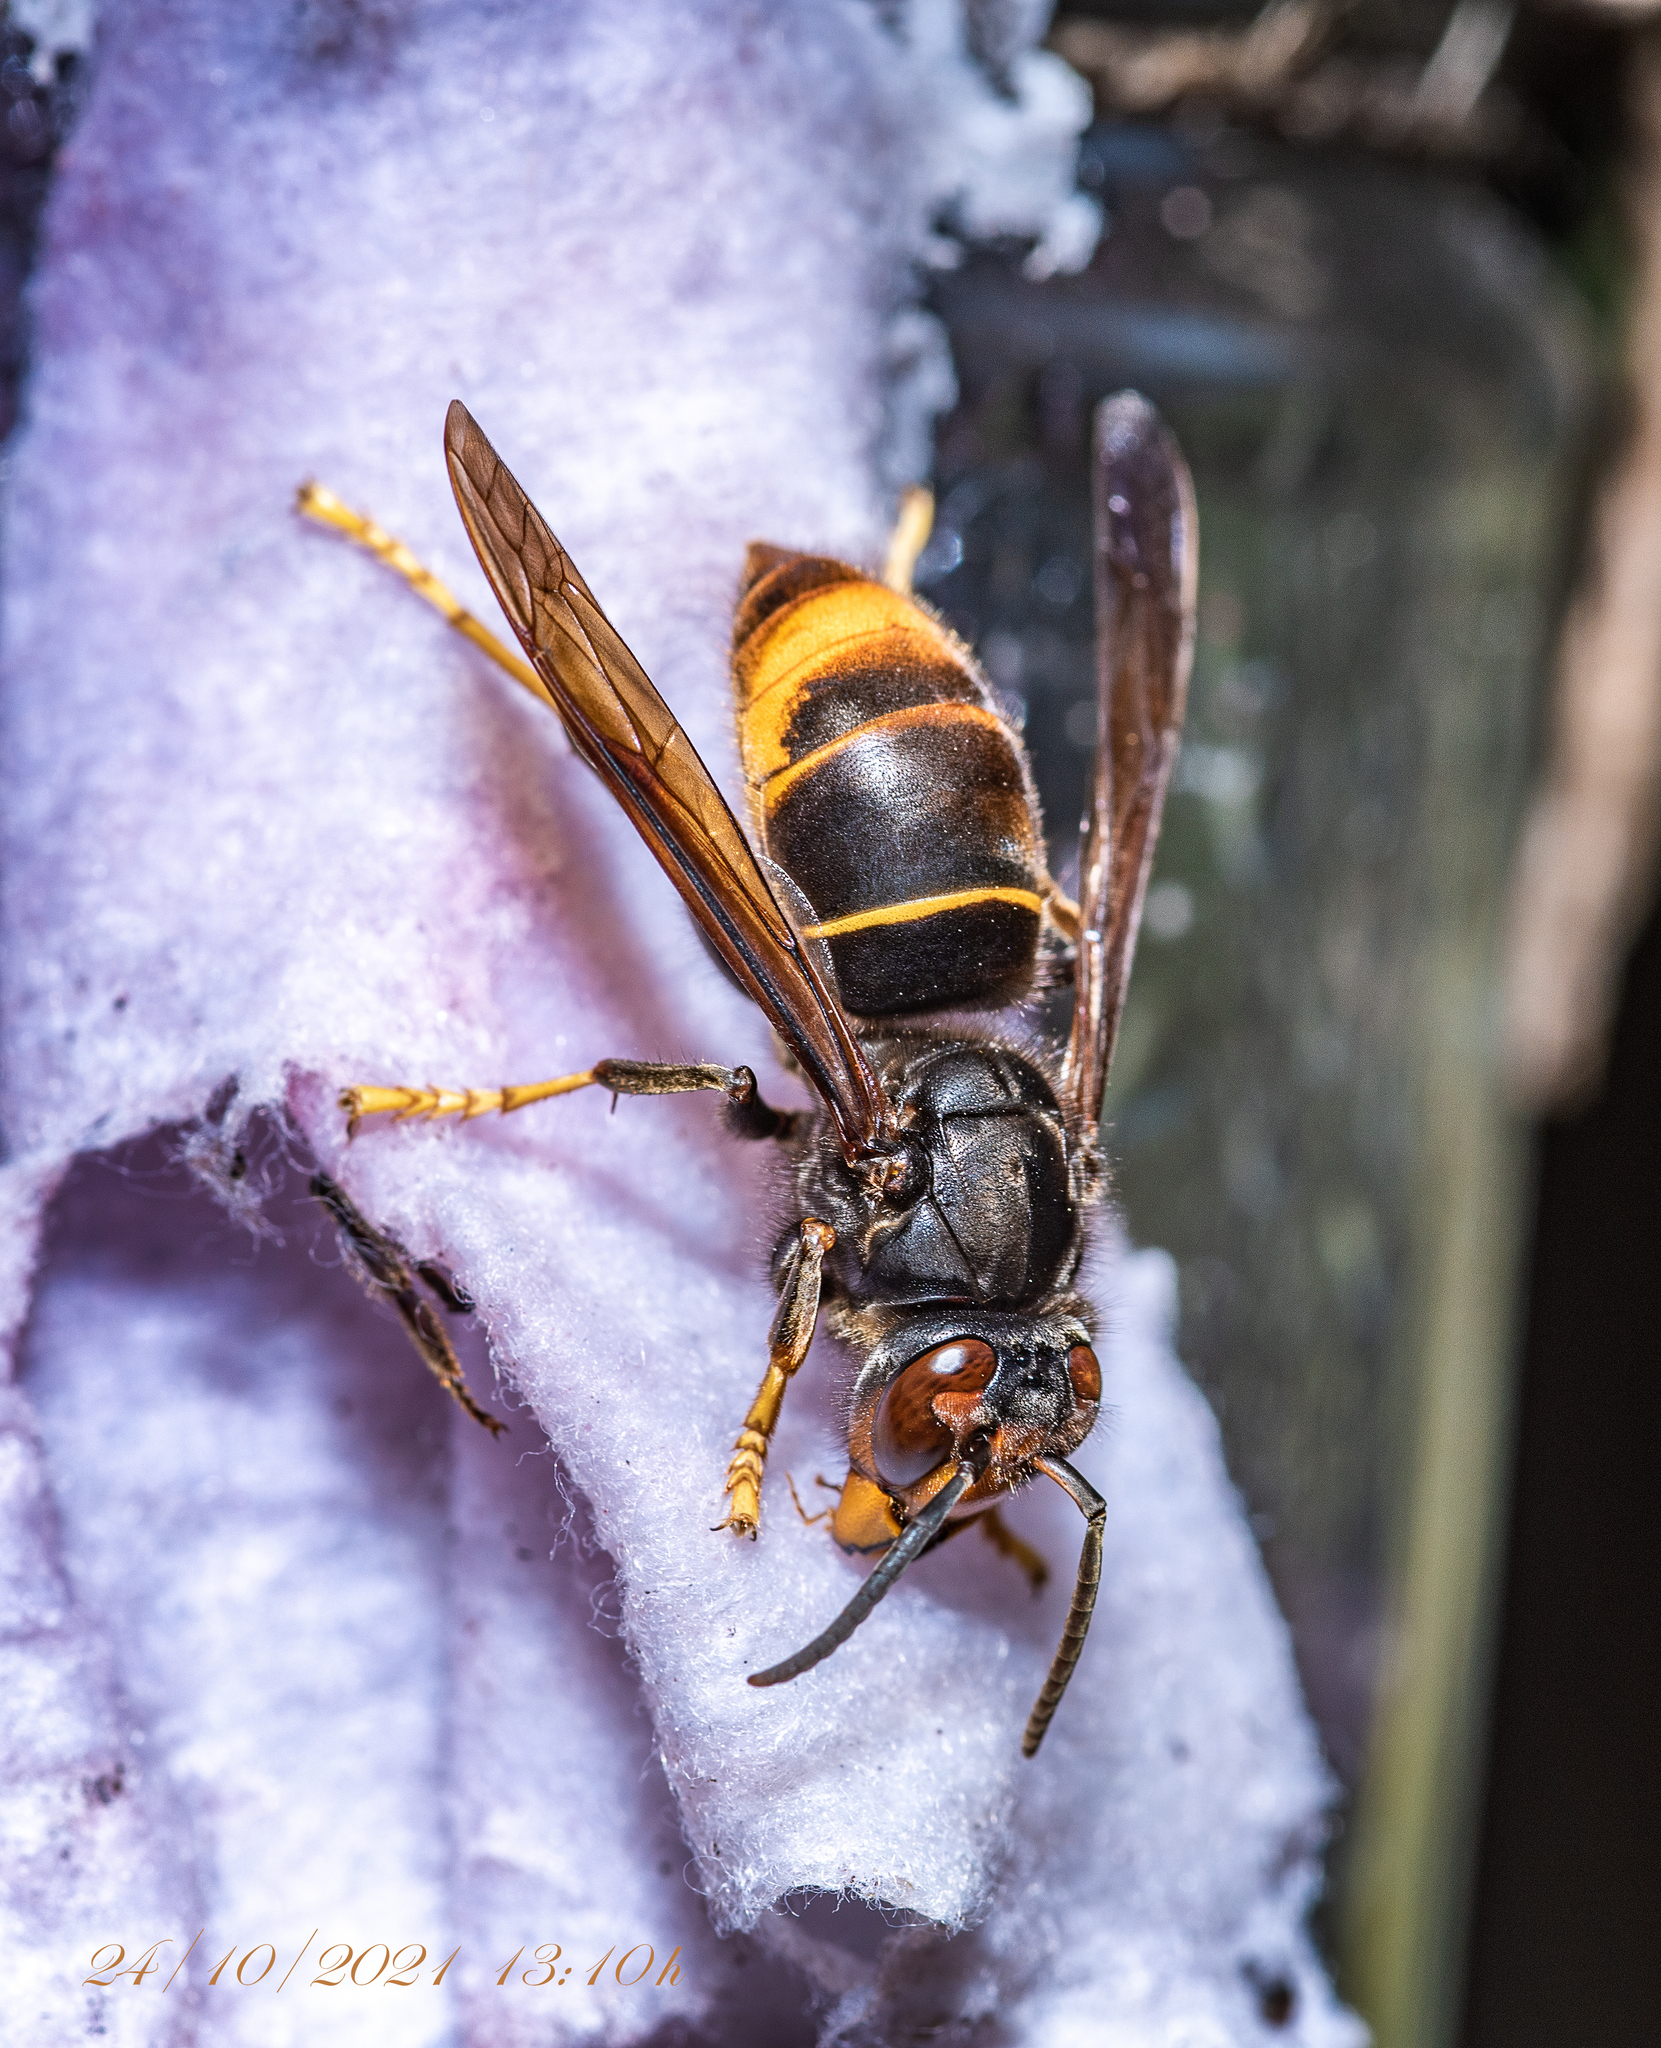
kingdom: Animalia
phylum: Arthropoda
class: Insecta
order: Hymenoptera
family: Vespidae
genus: Vespa
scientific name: Vespa velutina
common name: Asian hornet
